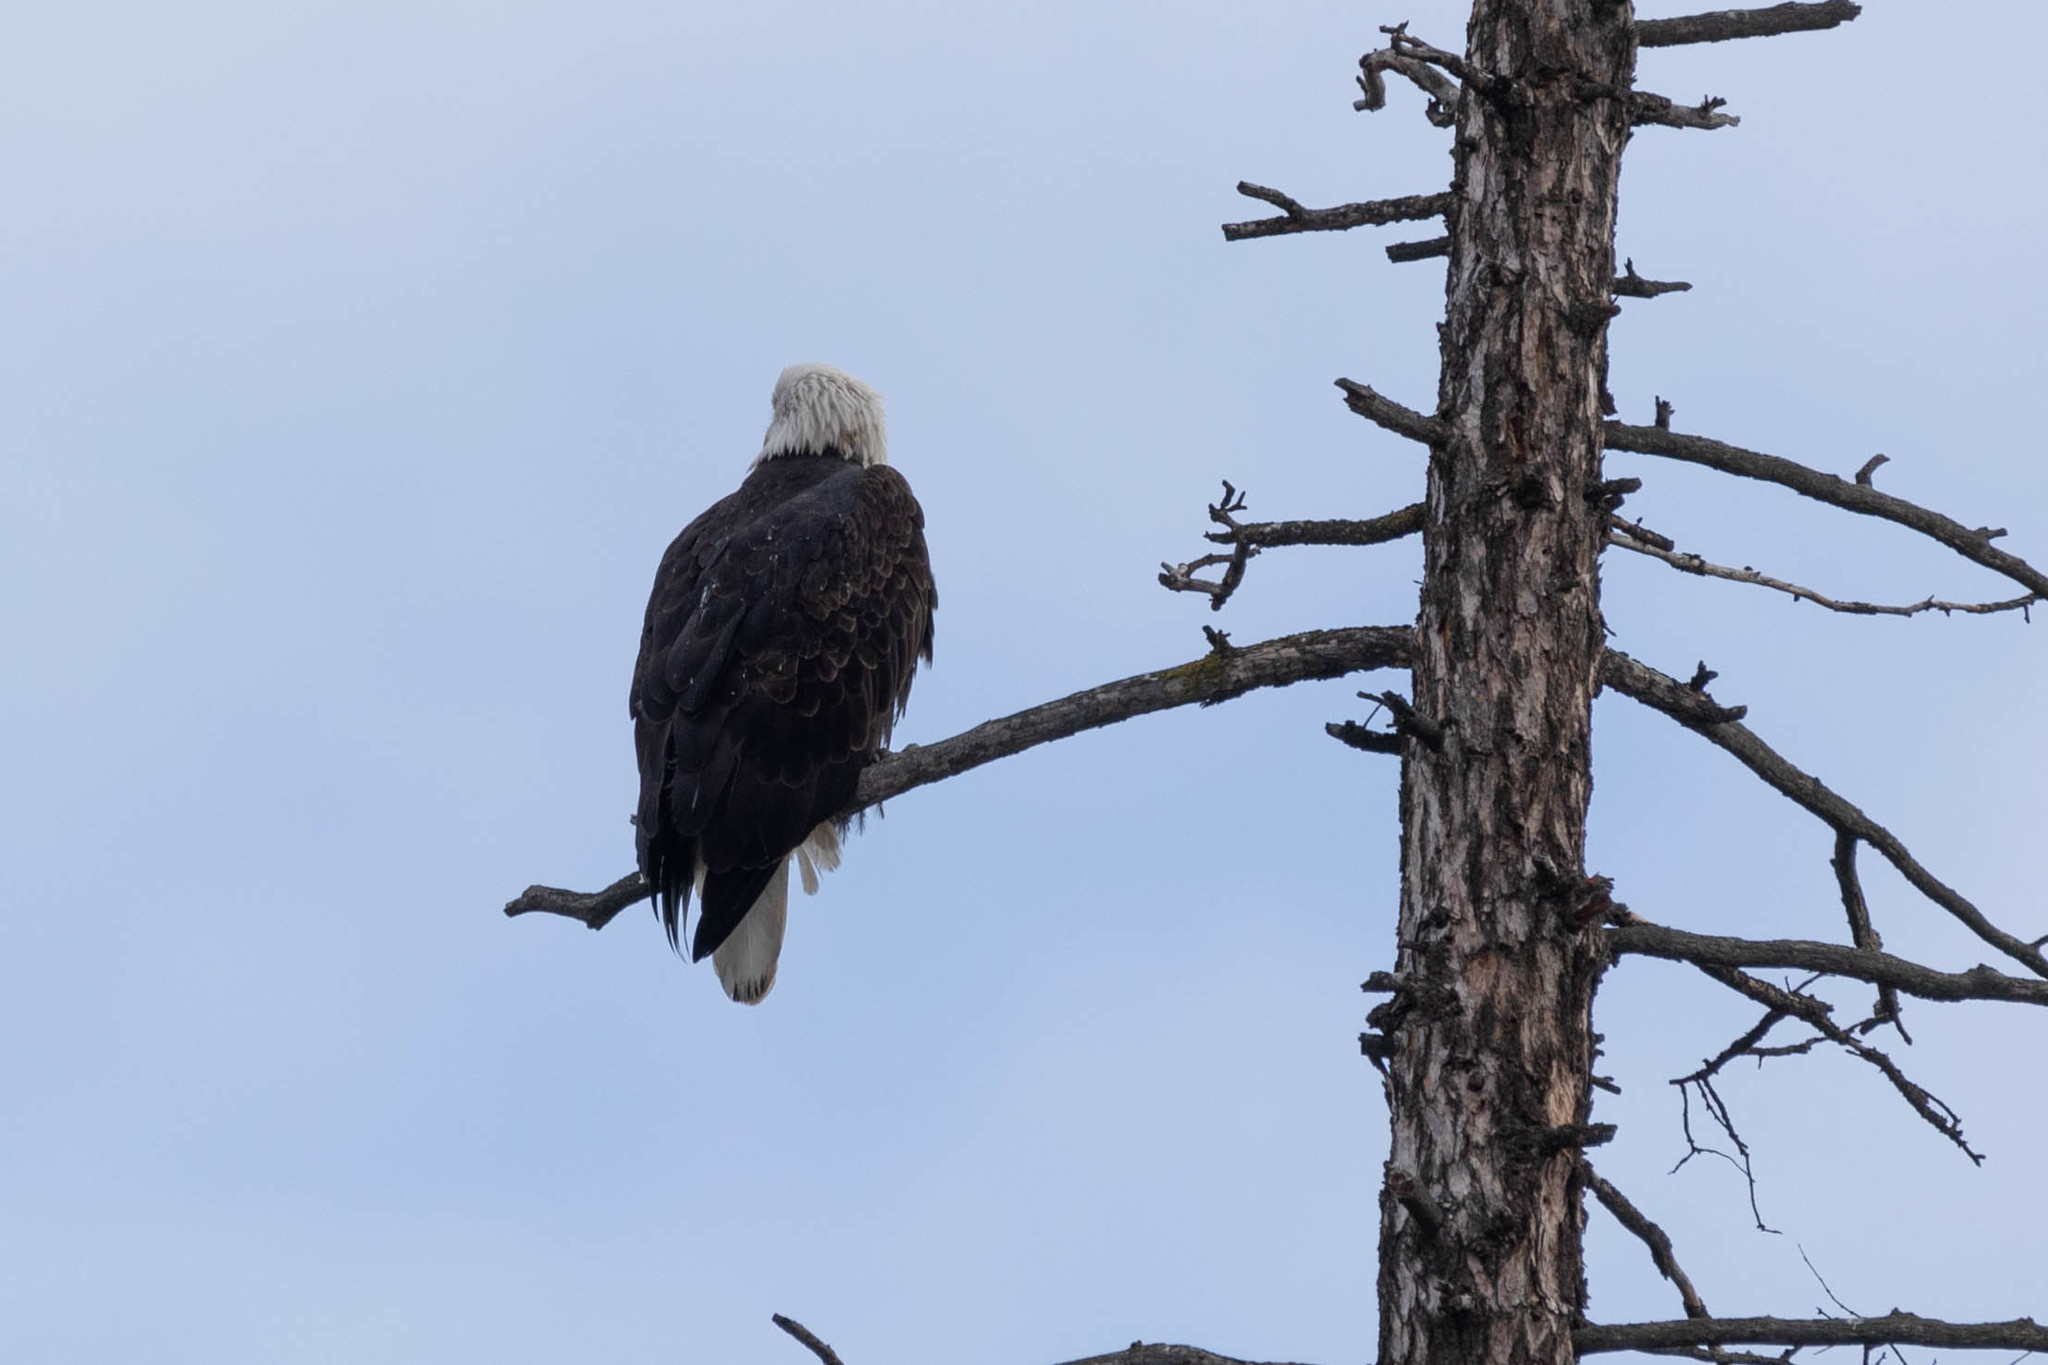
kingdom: Animalia
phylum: Chordata
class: Aves
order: Accipitriformes
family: Accipitridae
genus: Haliaeetus
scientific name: Haliaeetus leucocephalus
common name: Bald eagle
